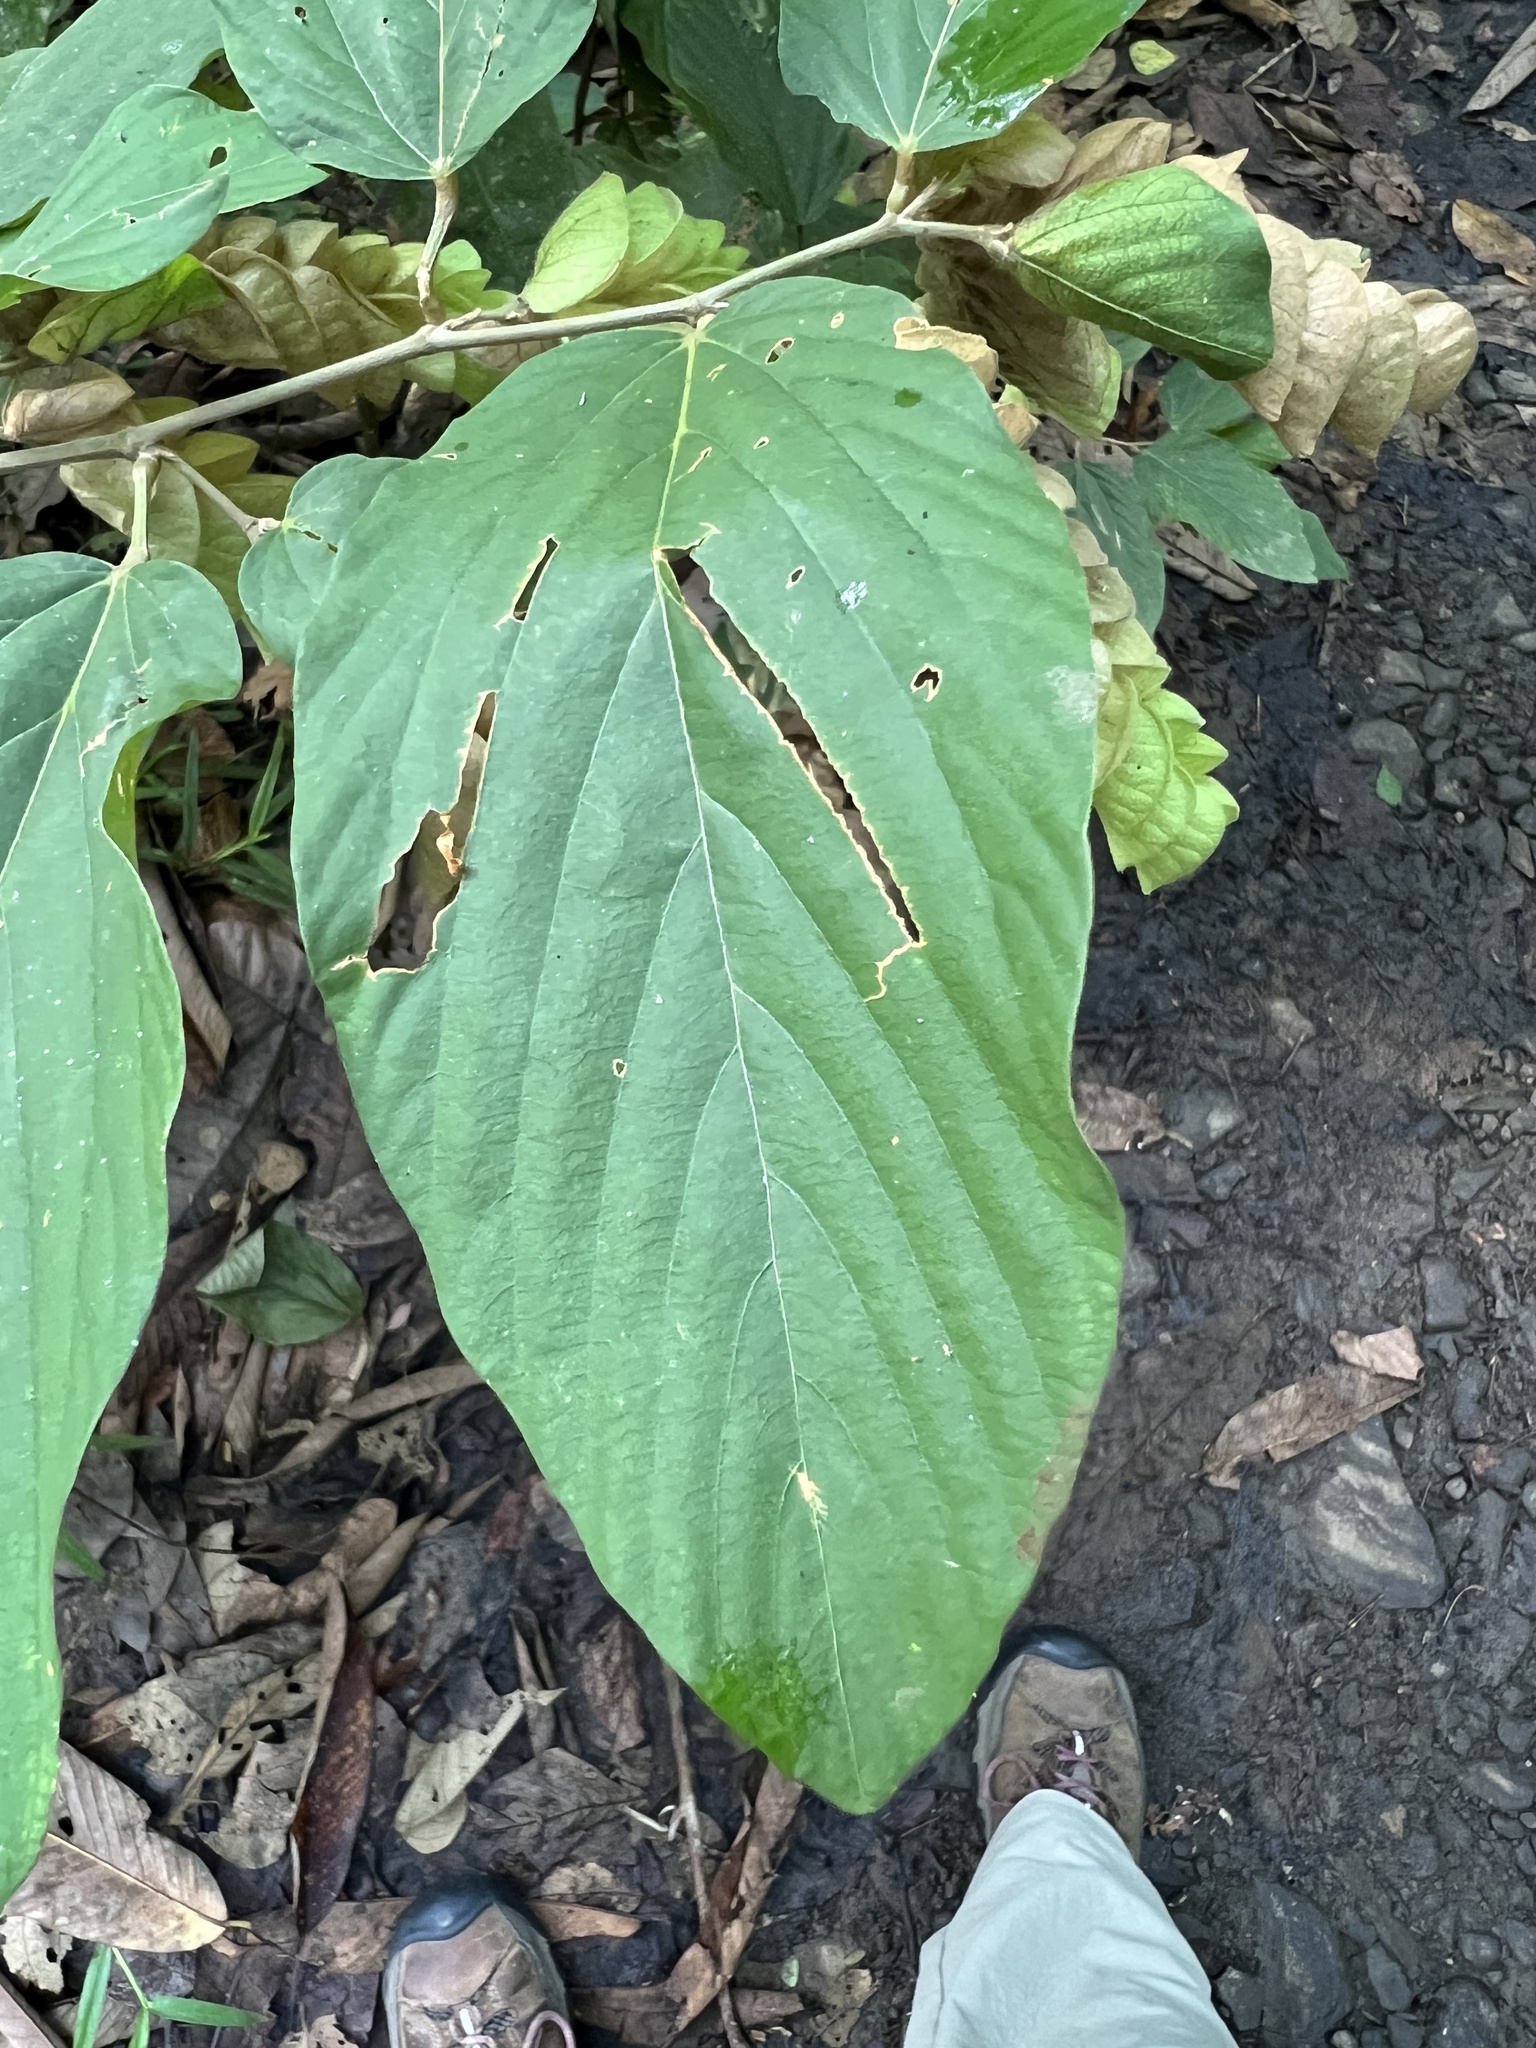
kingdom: Plantae
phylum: Tracheophyta
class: Magnoliopsida
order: Fabales
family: Fabaceae
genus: Flemingia
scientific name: Flemingia strobilifera
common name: Wild hops
